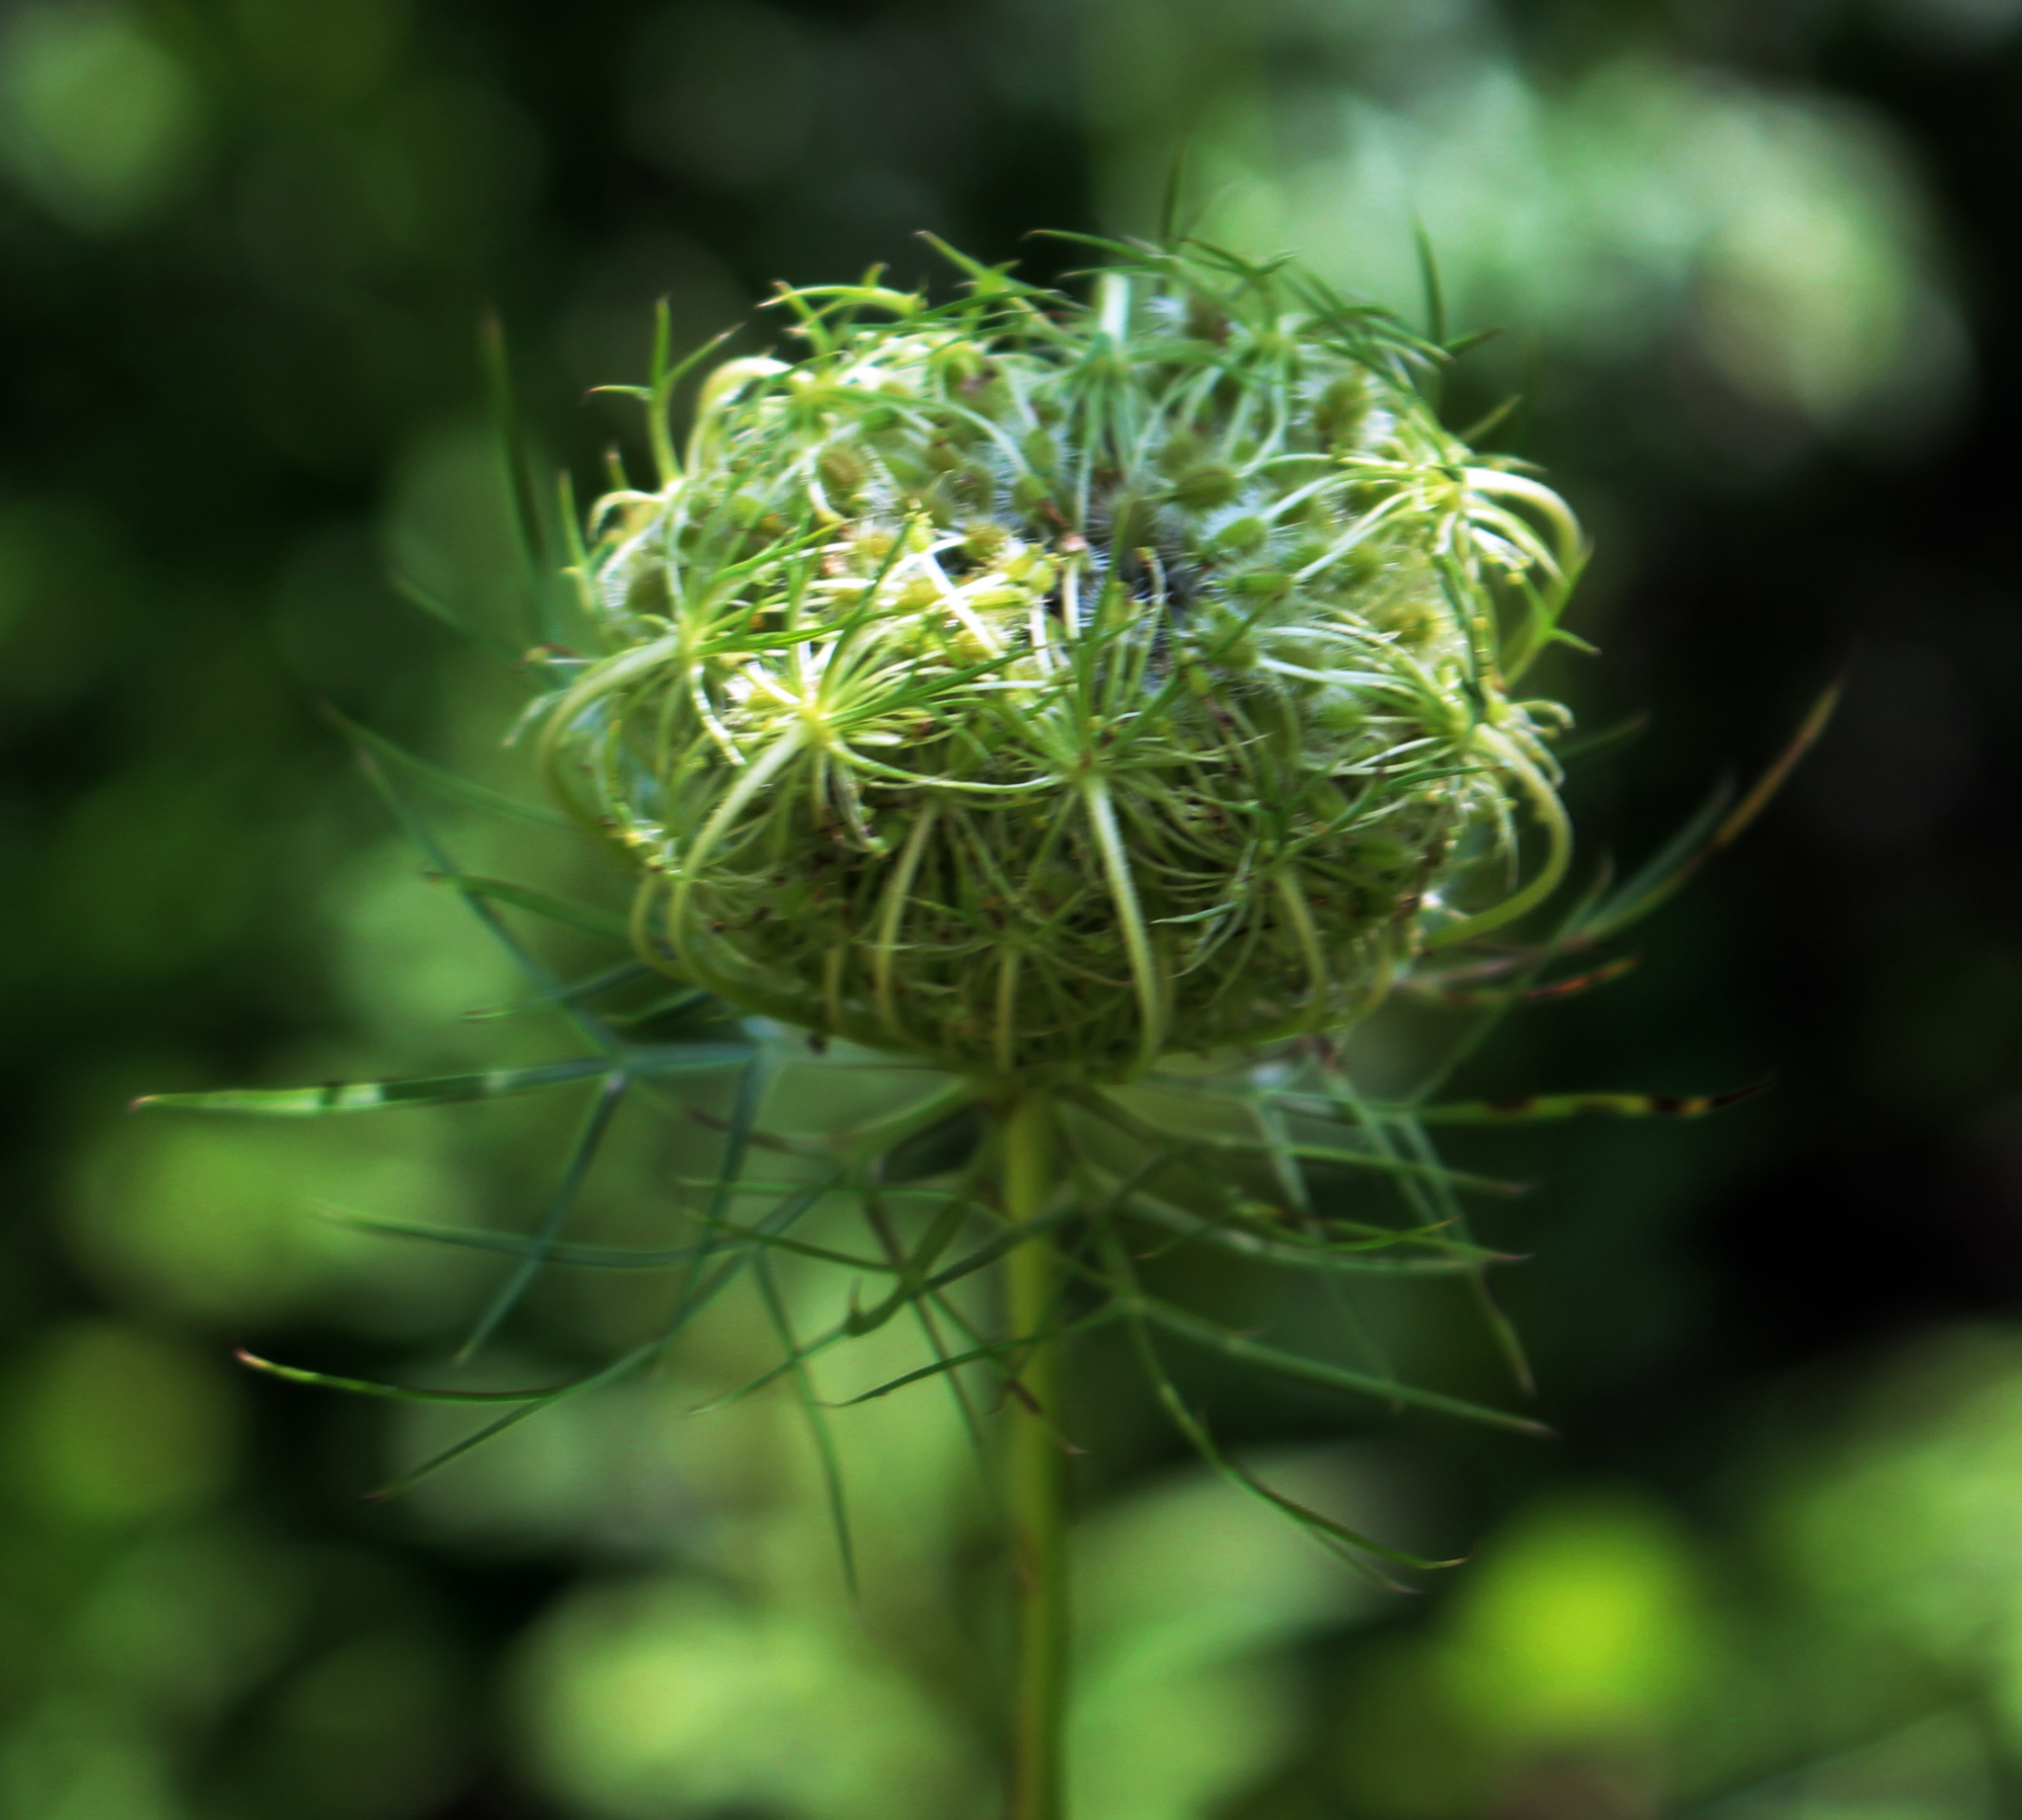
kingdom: Plantae
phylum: Tracheophyta
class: Magnoliopsida
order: Apiales
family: Apiaceae
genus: Daucus
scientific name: Daucus carota
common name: Wild carrot
